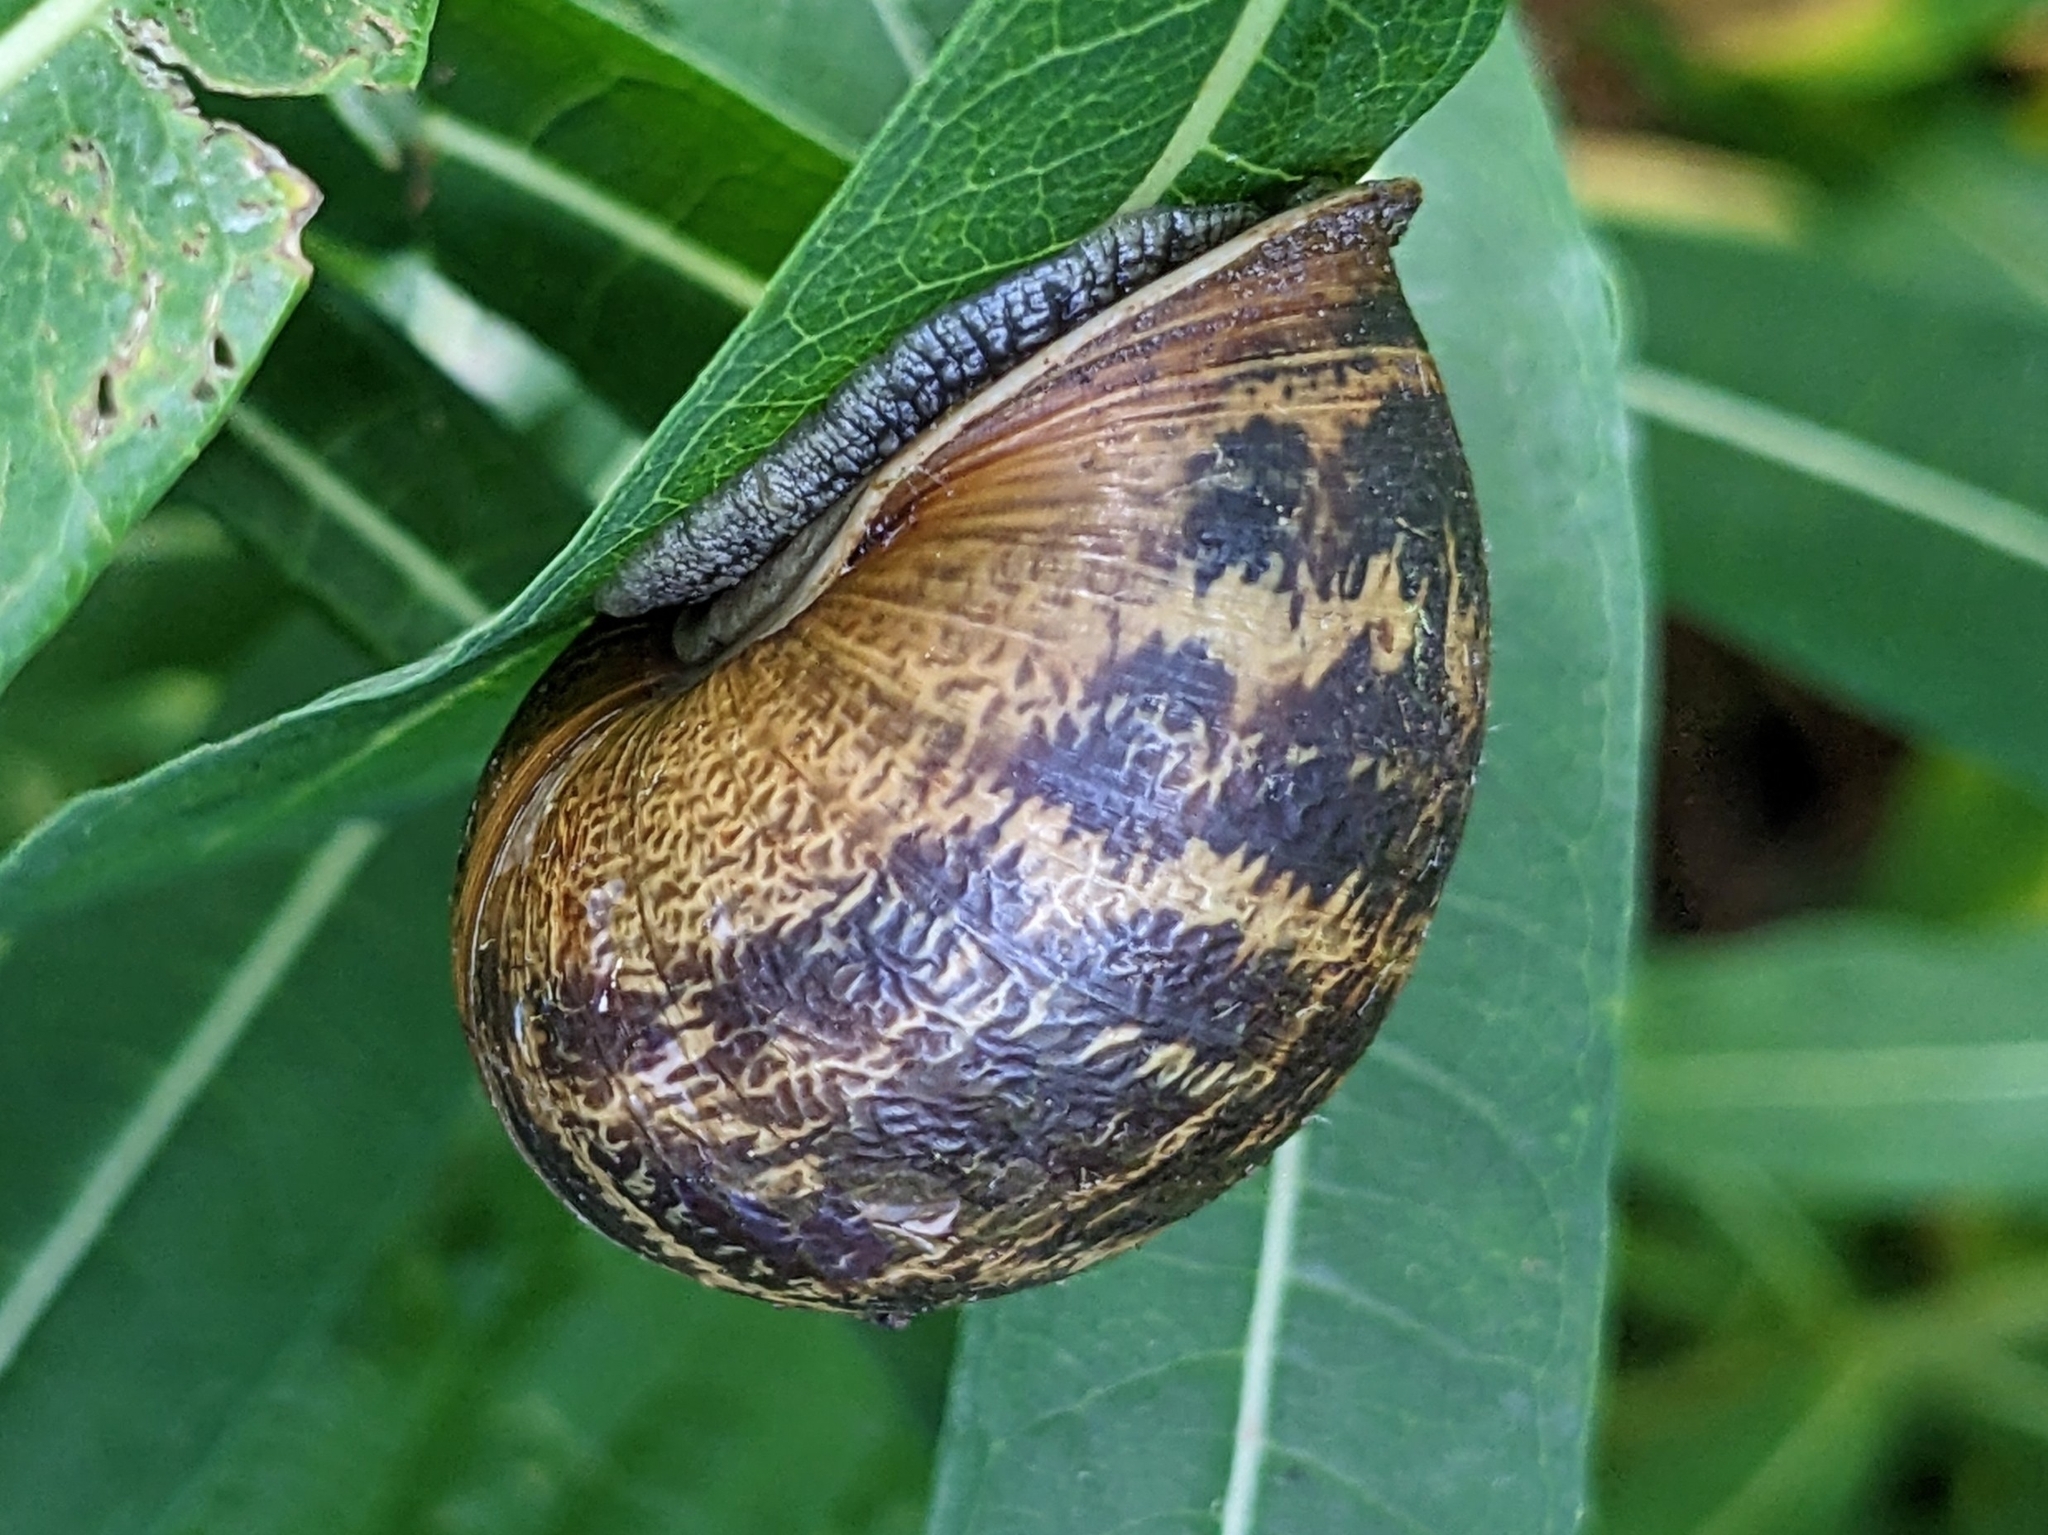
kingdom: Animalia
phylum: Mollusca
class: Gastropoda
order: Stylommatophora
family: Helicidae
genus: Cornu
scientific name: Cornu aspersum
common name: Brown garden snail
